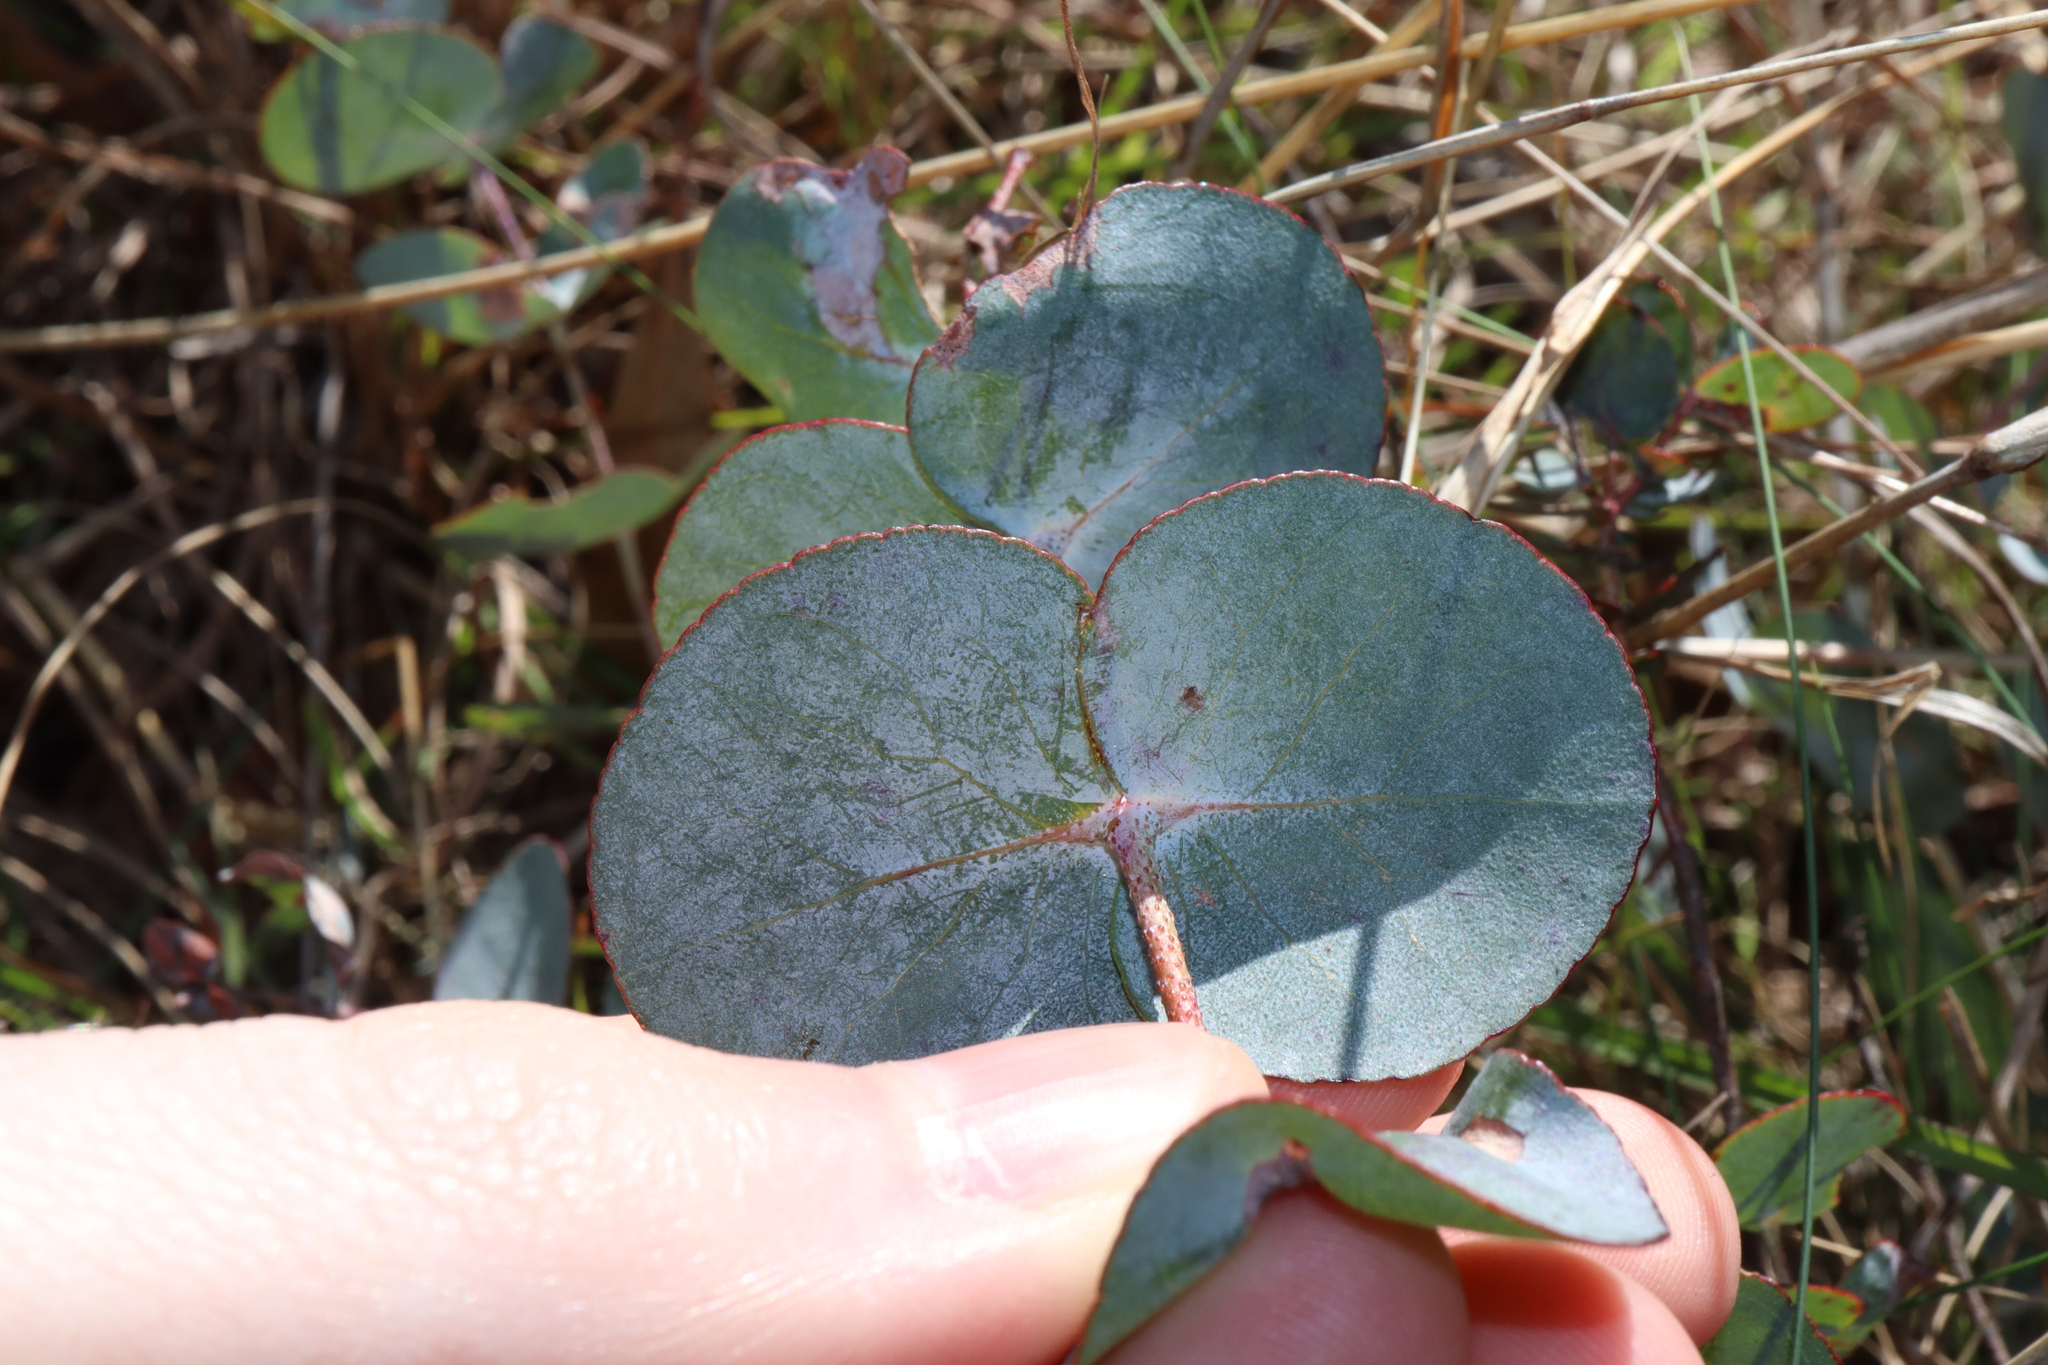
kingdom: Plantae
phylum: Tracheophyta
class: Magnoliopsida
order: Myrtales
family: Myrtaceae
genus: Eucalyptus
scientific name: Eucalyptus
